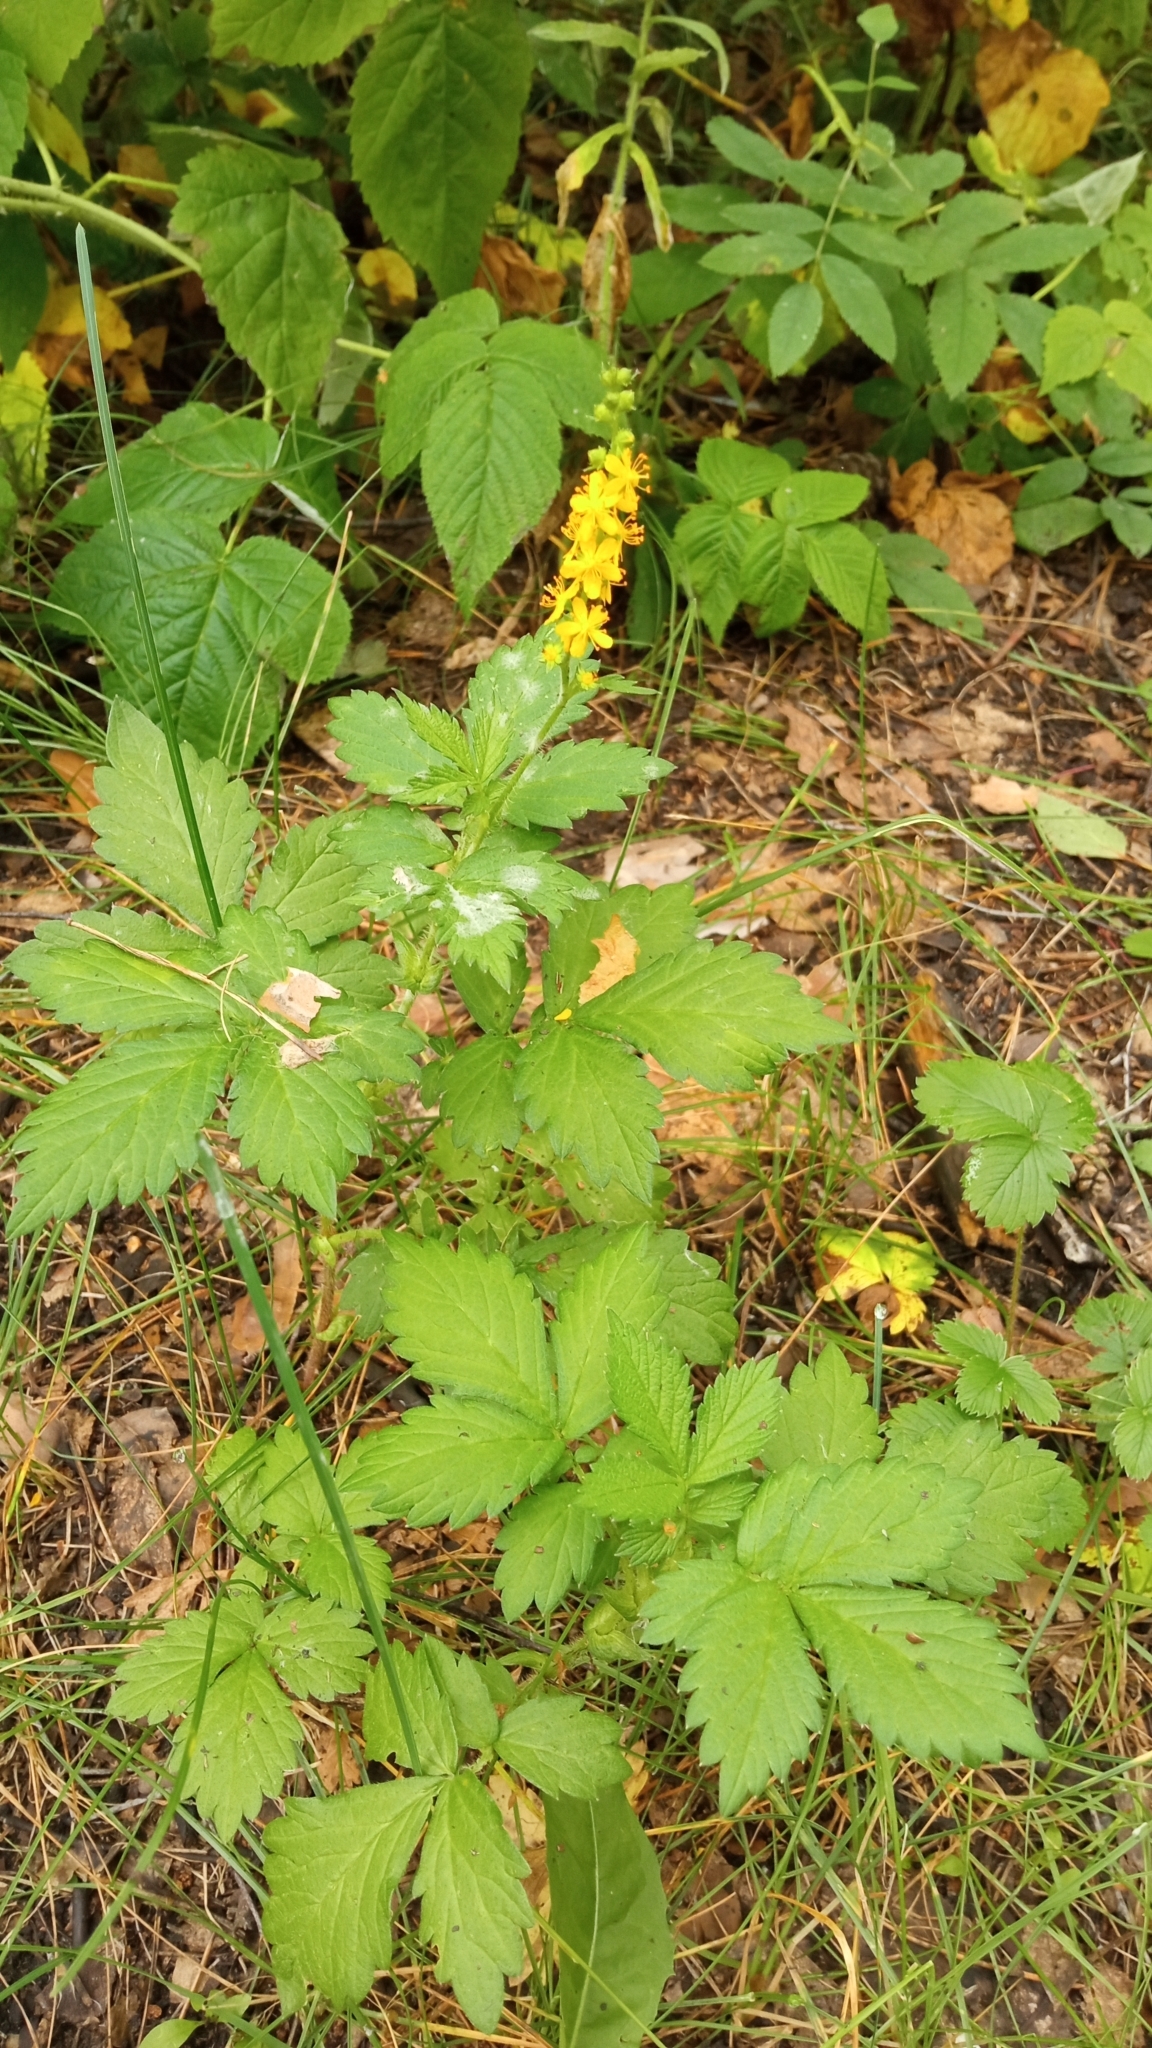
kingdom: Plantae
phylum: Tracheophyta
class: Magnoliopsida
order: Rosales
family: Rosaceae
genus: Agrimonia
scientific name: Agrimonia pilosa
